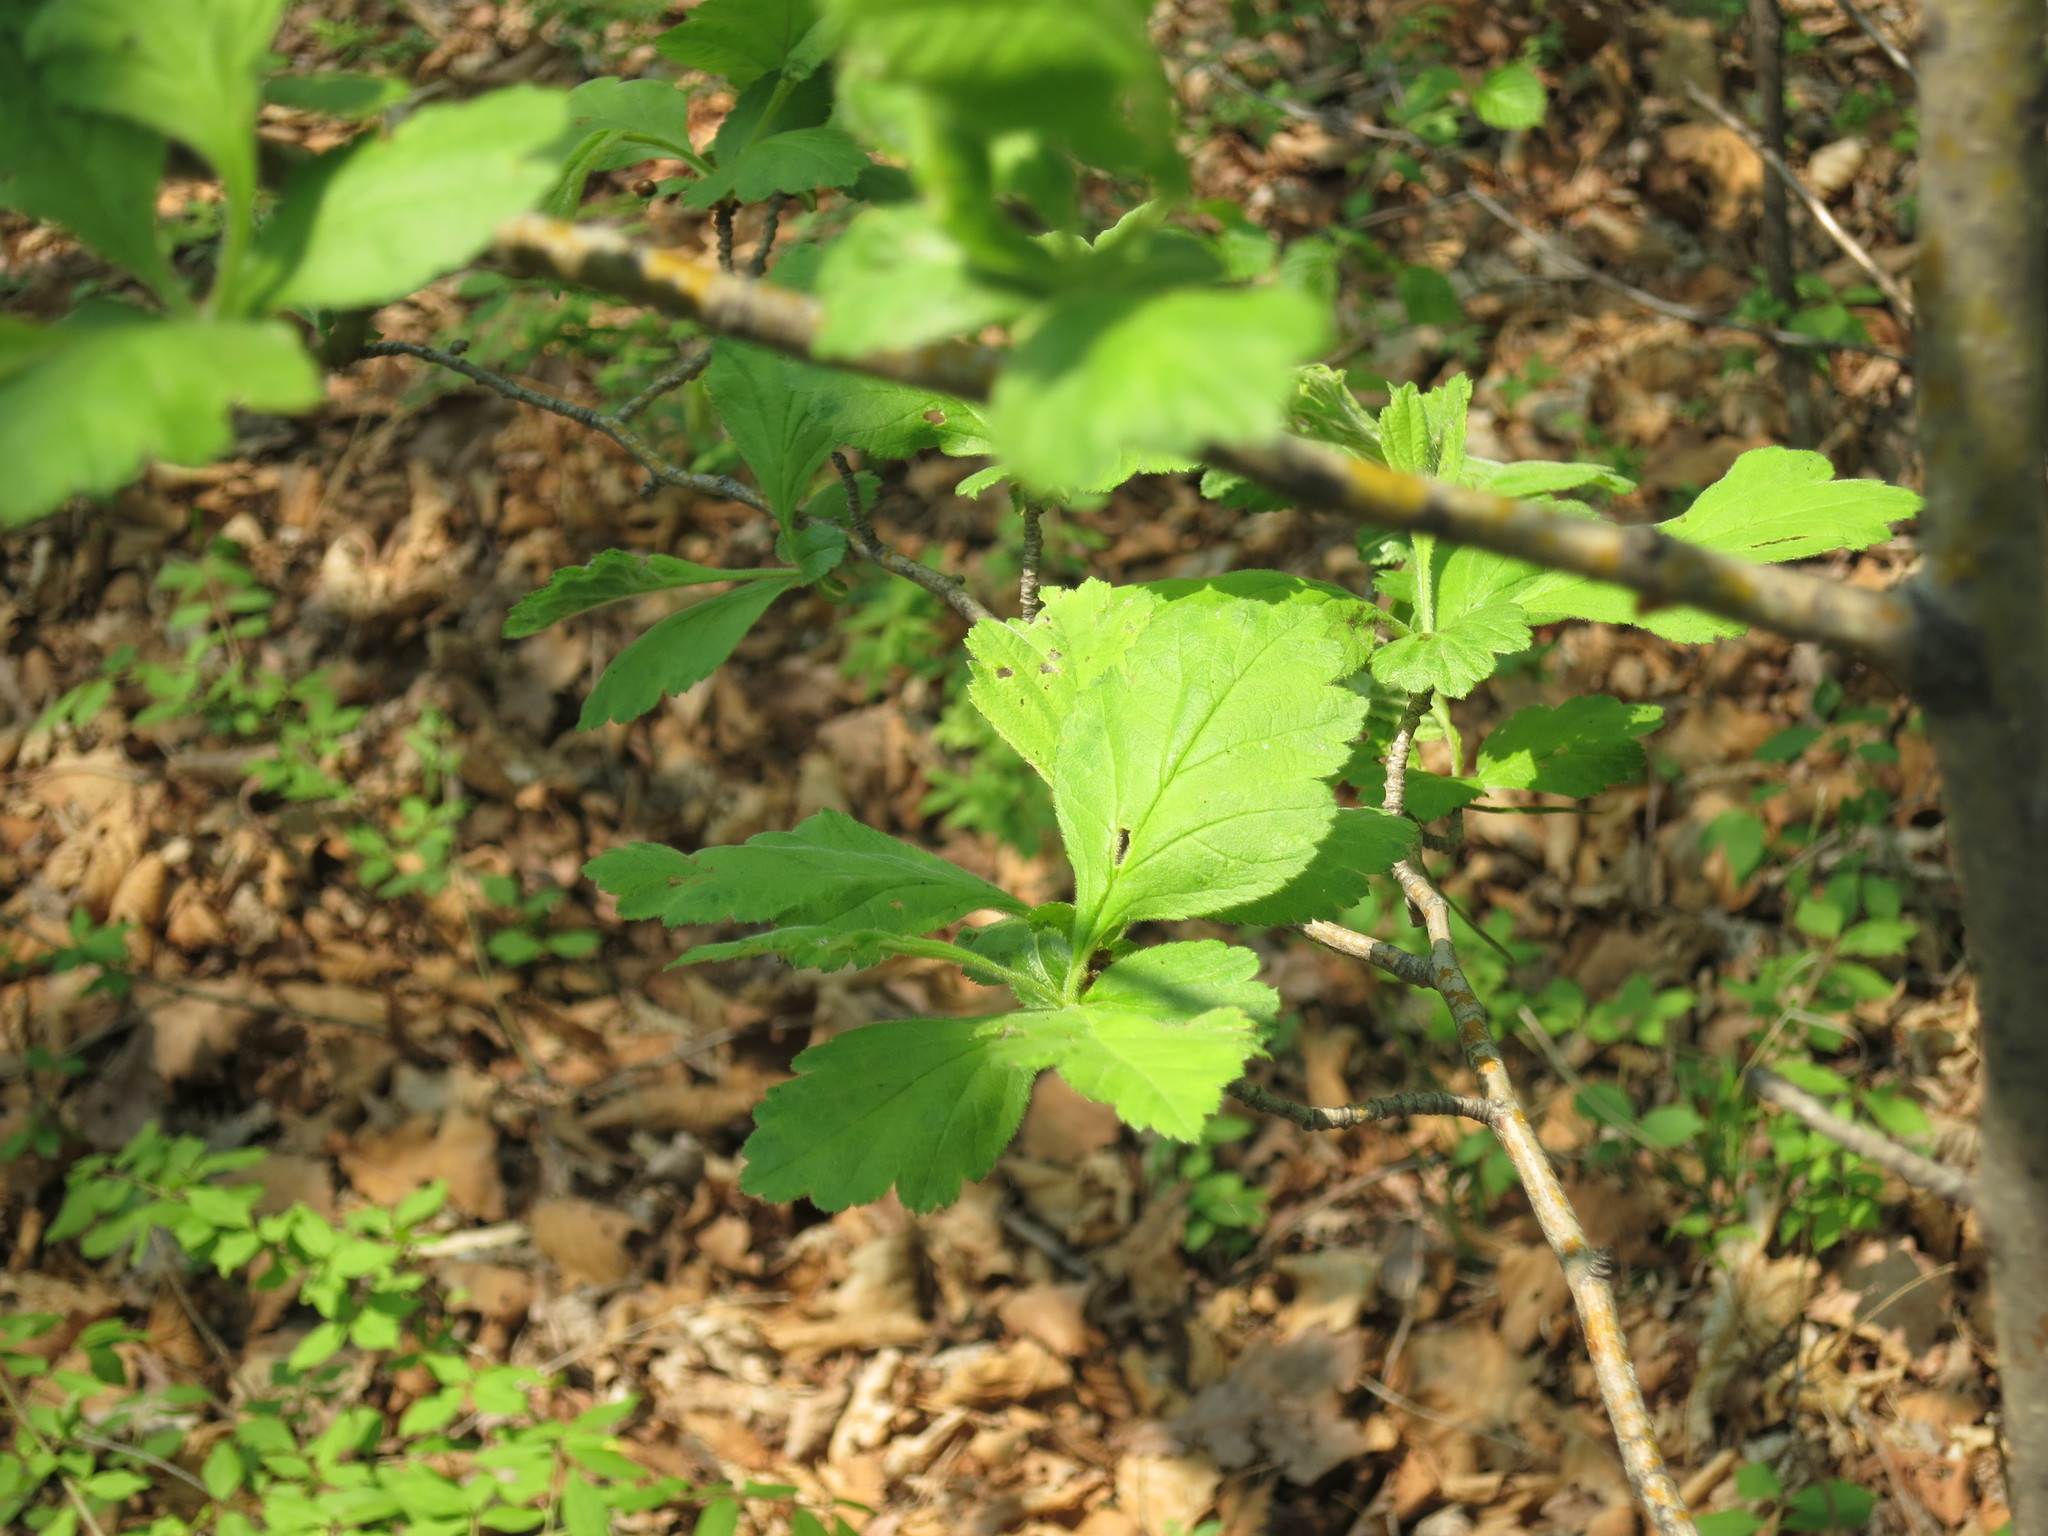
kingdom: Plantae
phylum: Tracheophyta
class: Magnoliopsida
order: Rosales
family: Rosaceae
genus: Crataegus
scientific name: Crataegus maximowiczii
